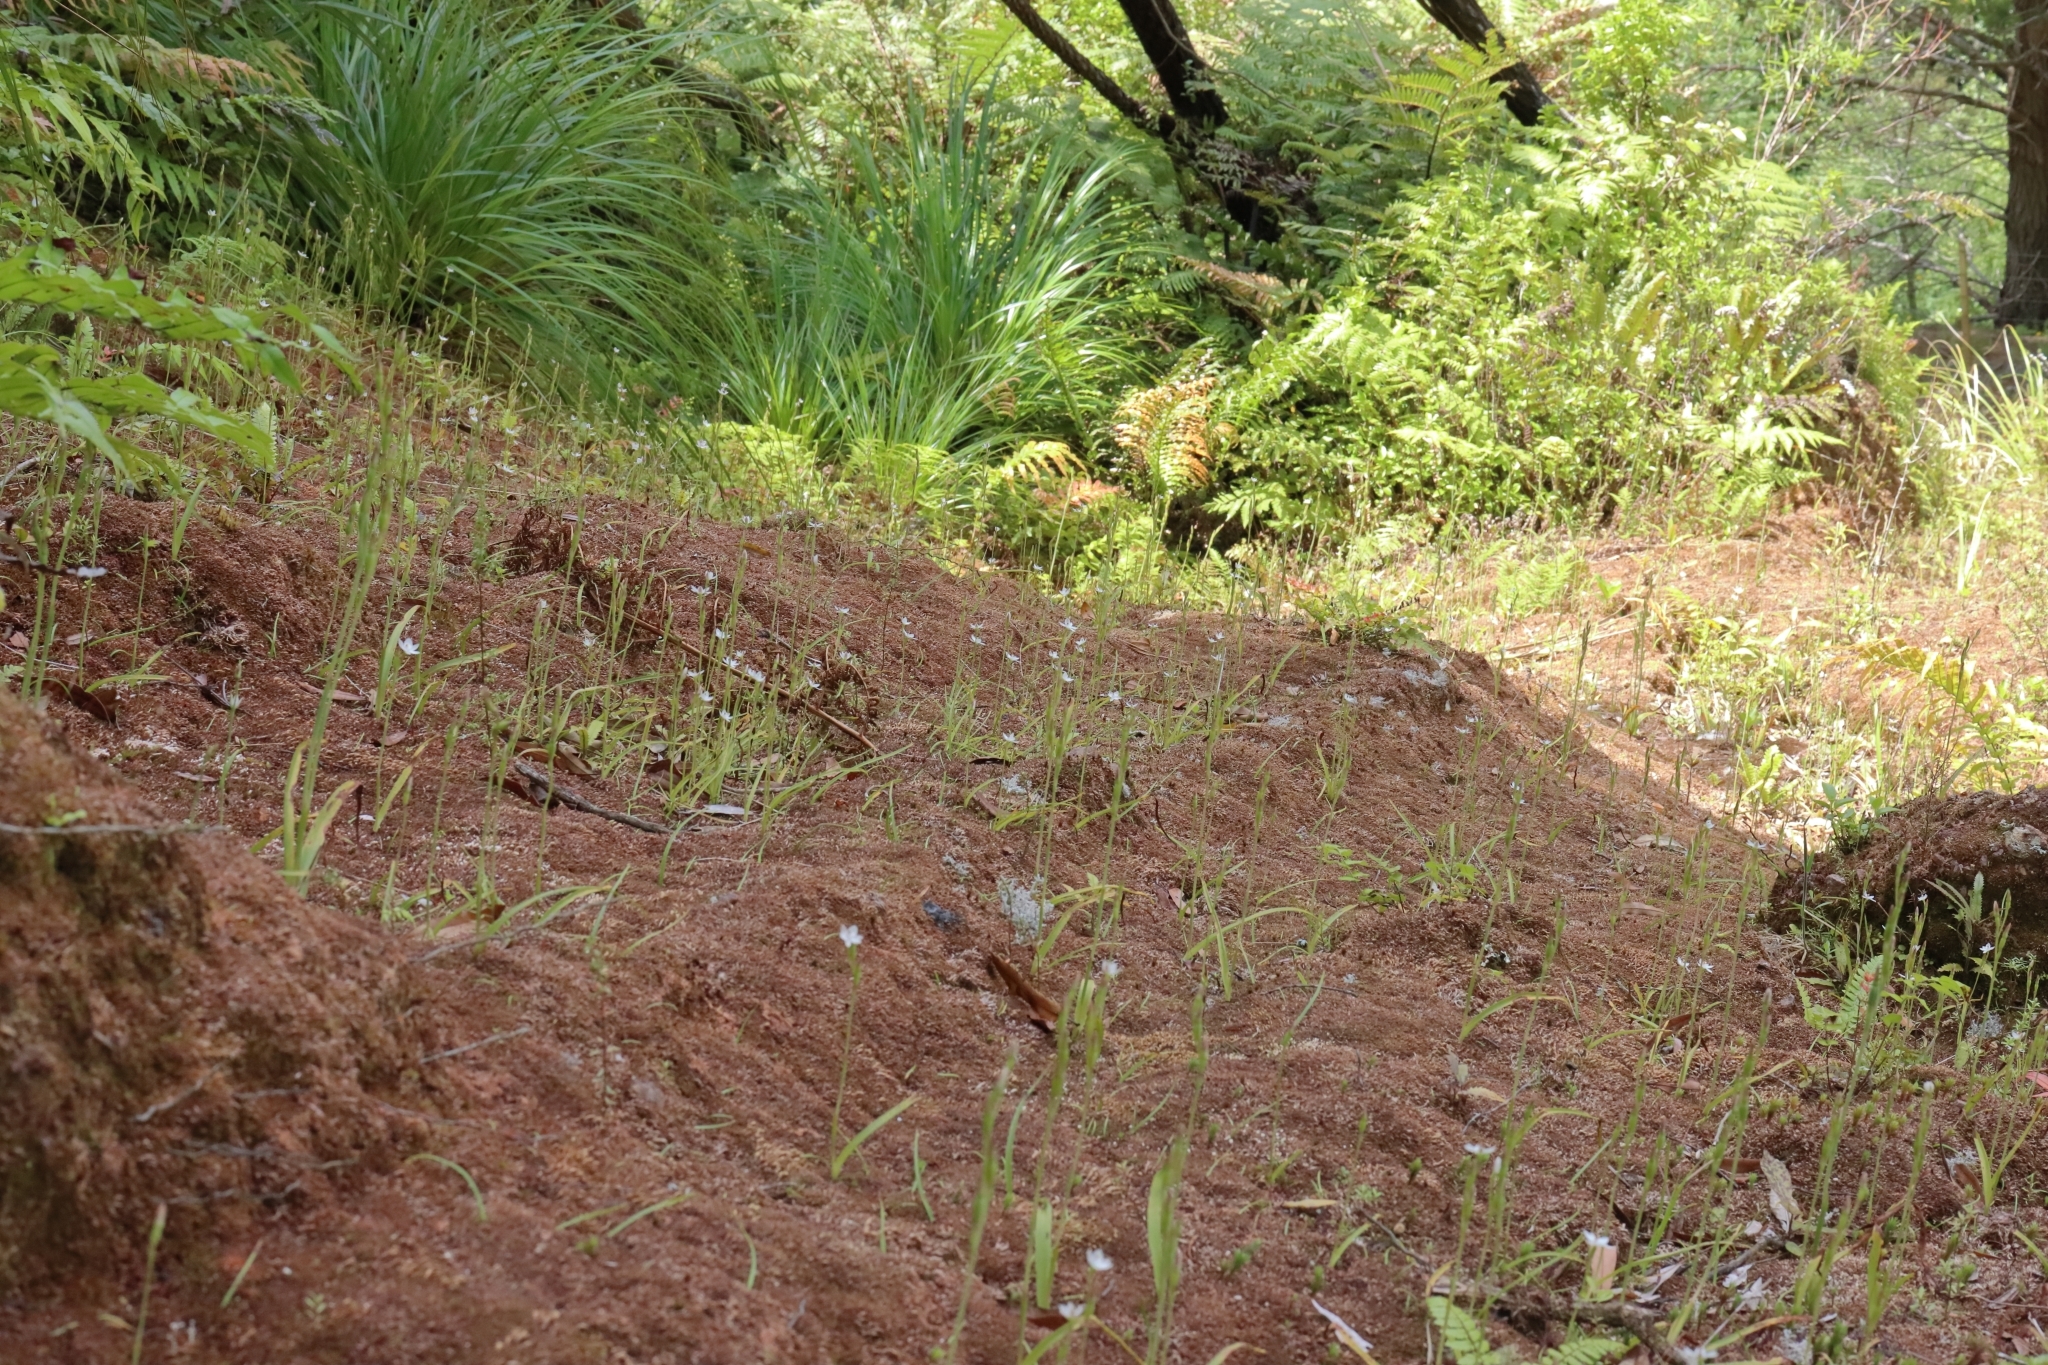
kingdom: Plantae
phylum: Tracheophyta
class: Liliopsida
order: Asparagales
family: Orchidaceae
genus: Thelymitra
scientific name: Thelymitra longifolia
